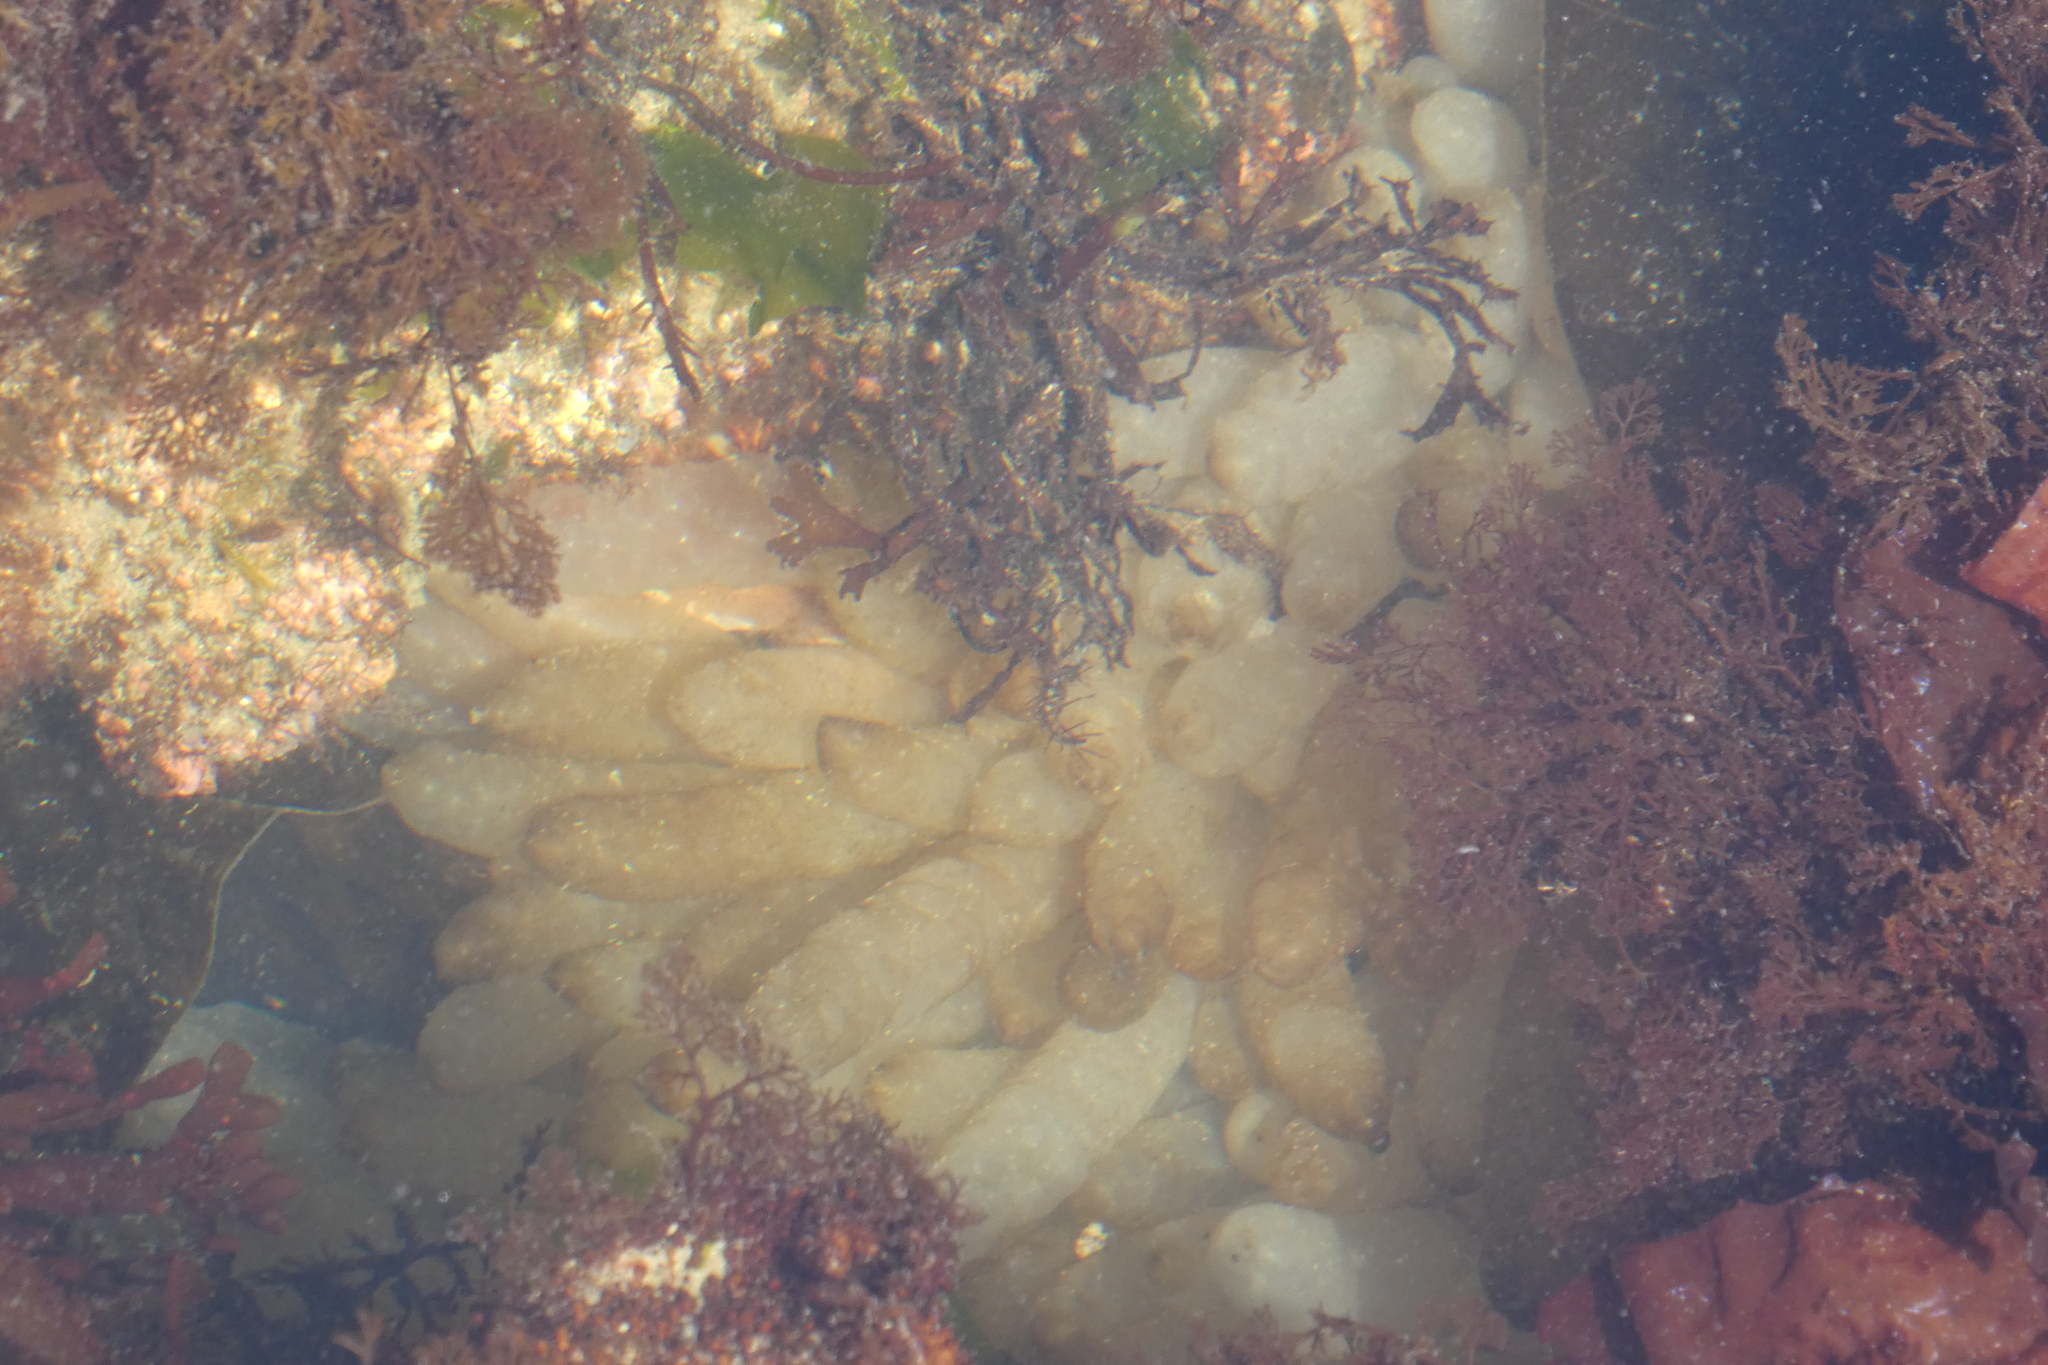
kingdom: Animalia
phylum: Mollusca
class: Cephalopoda
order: Myopsida
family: Loliginidae
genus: Doryteuthis
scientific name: Doryteuthis opalescens
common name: Opalescent inshore squid
